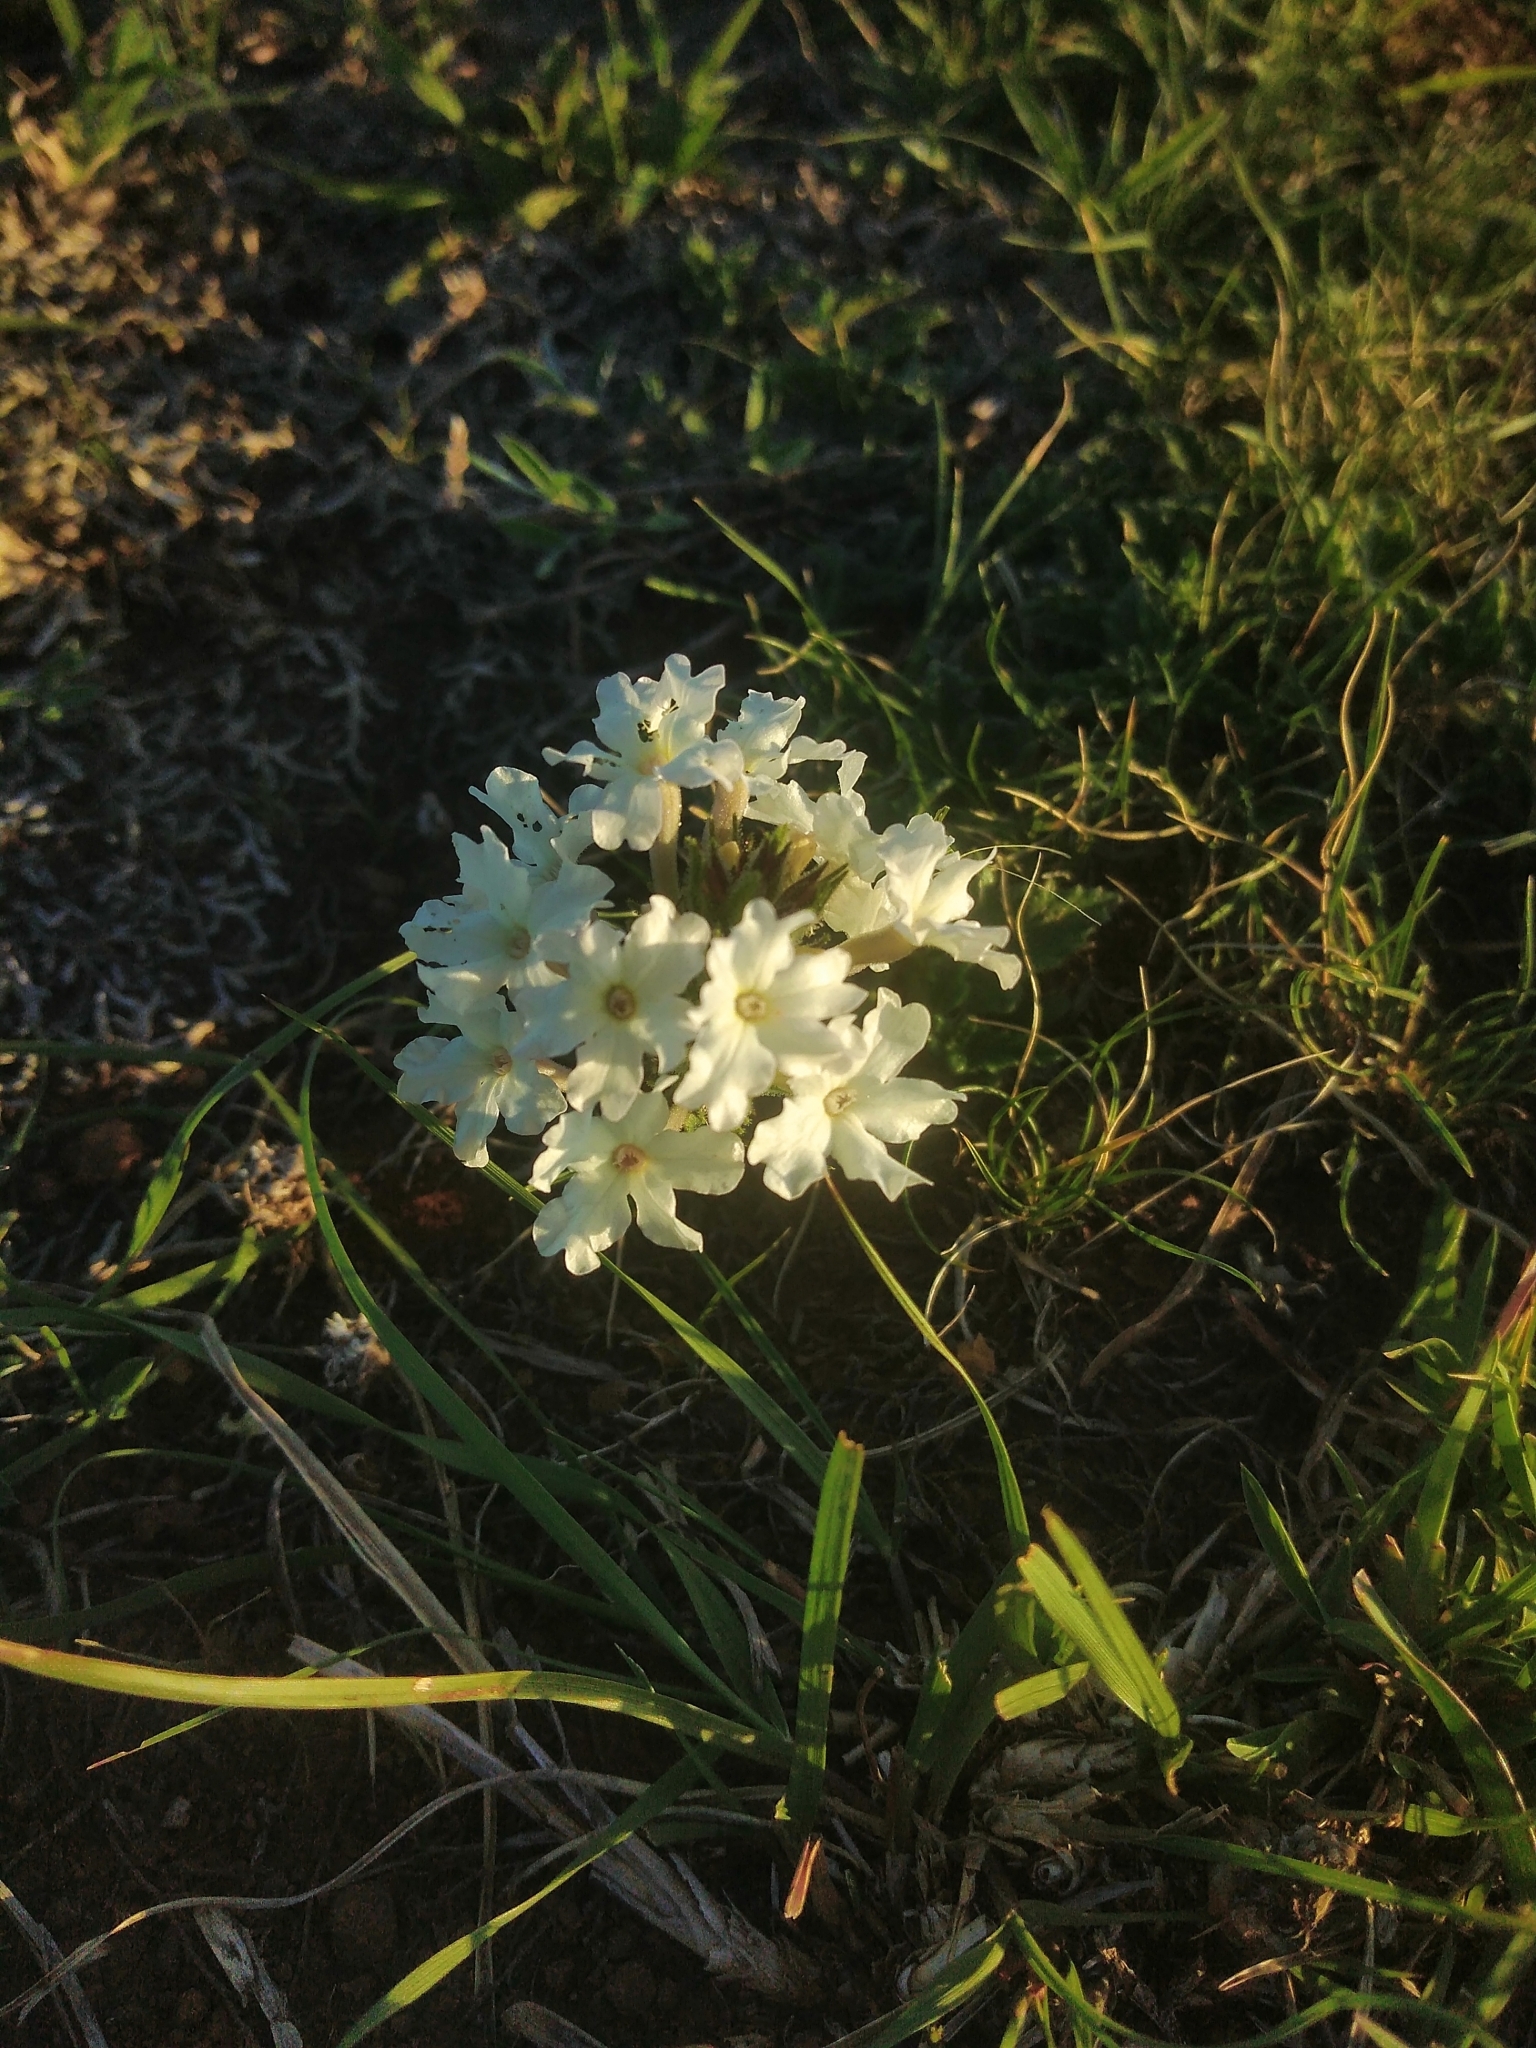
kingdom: Plantae
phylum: Tracheophyta
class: Magnoliopsida
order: Lamiales
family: Verbenaceae
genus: Verbena
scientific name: Verbena platensis
